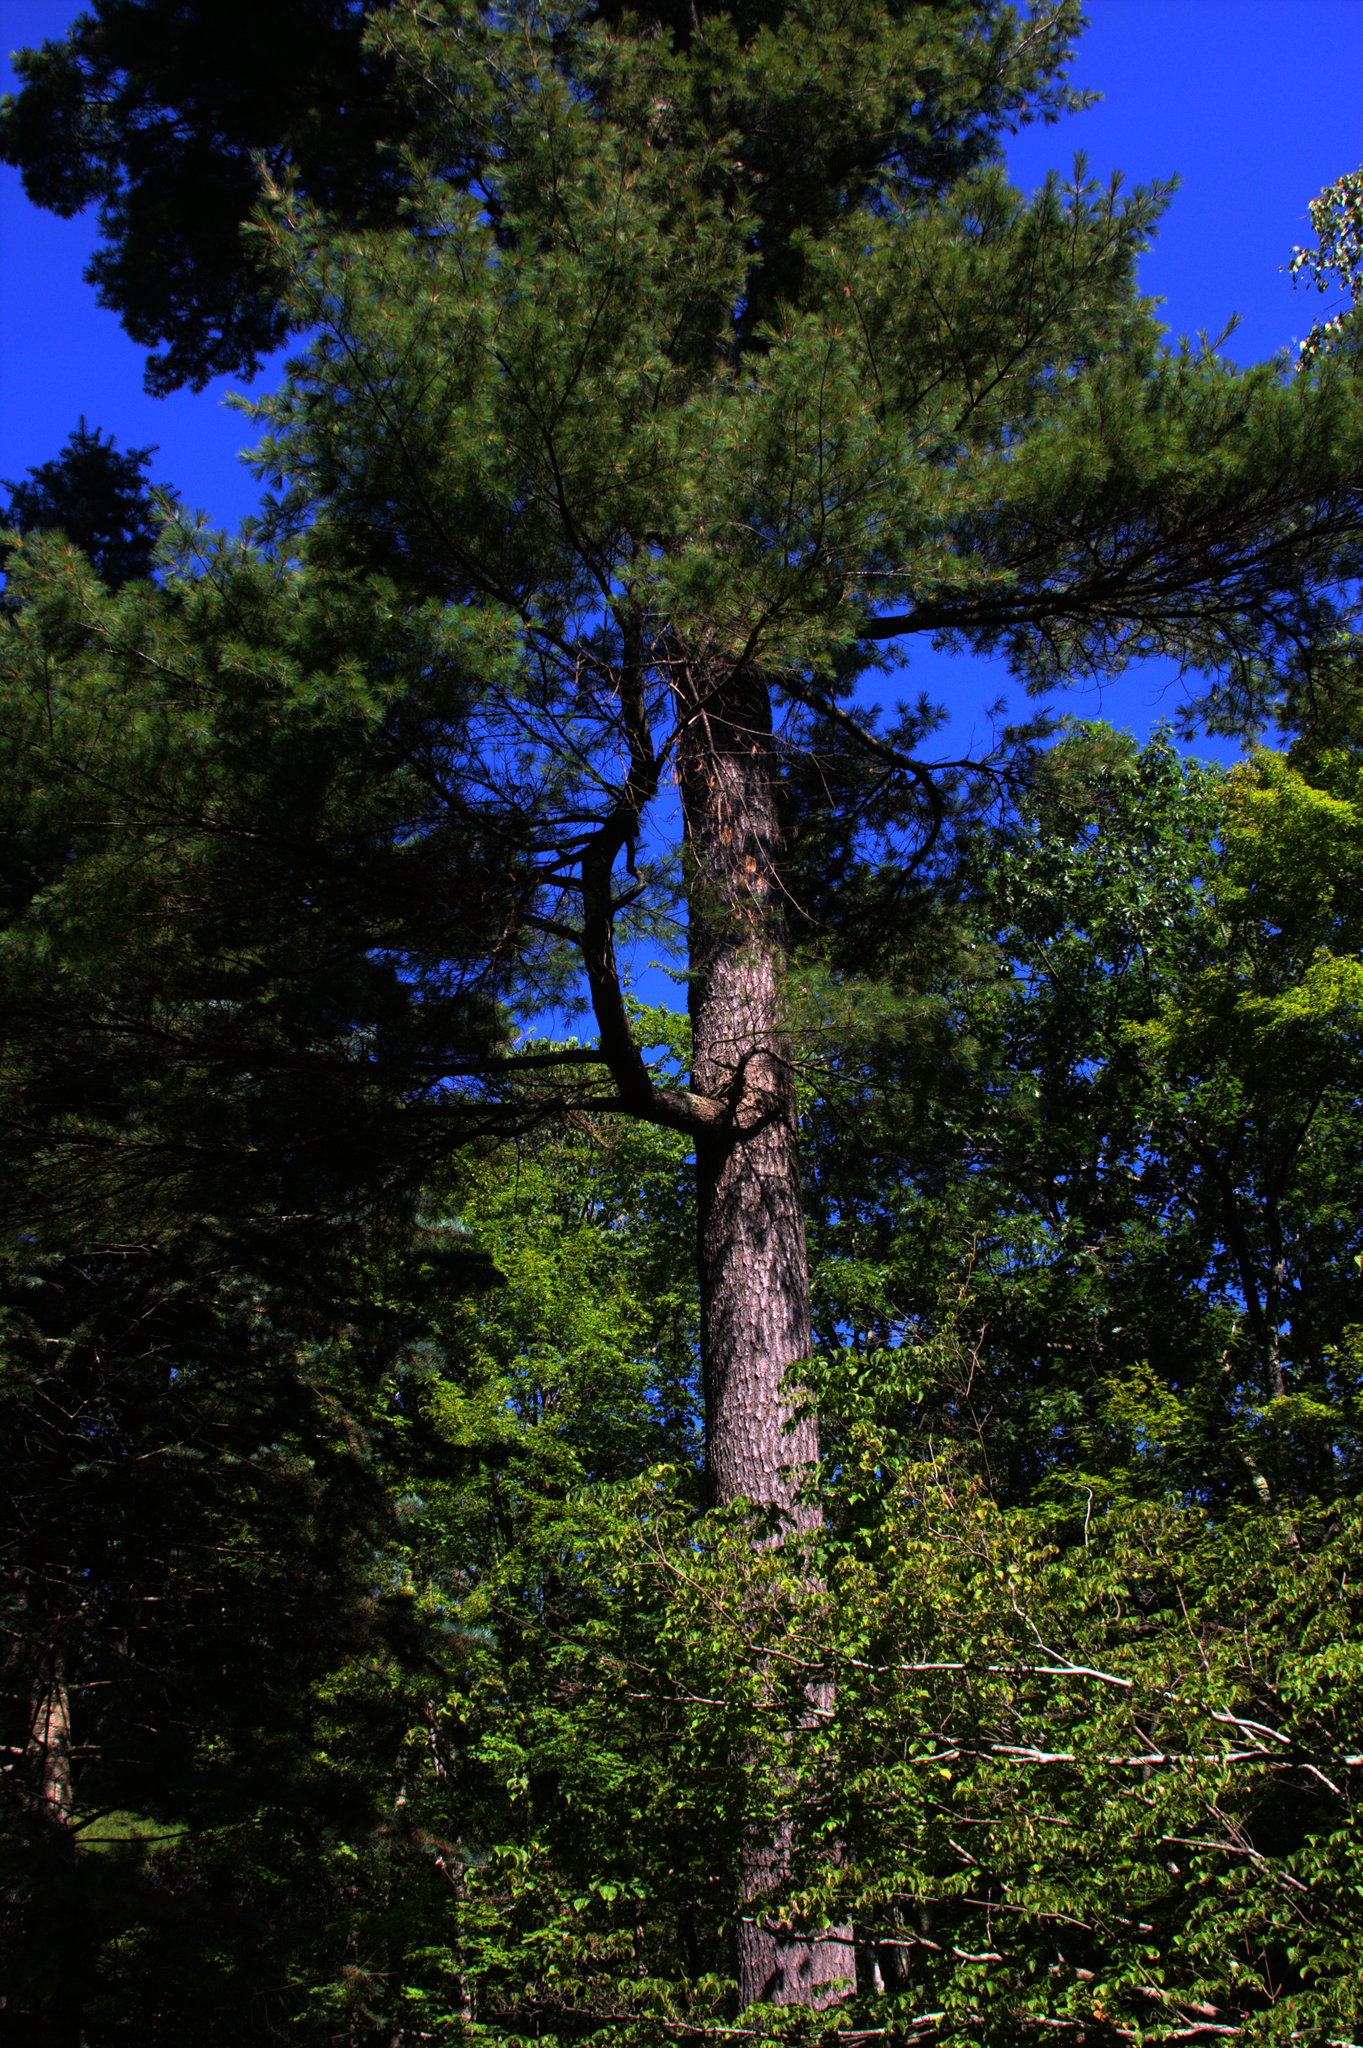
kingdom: Plantae
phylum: Tracheophyta
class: Pinopsida
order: Pinales
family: Pinaceae
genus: Pinus
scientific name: Pinus strobus
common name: Weymouth pine
